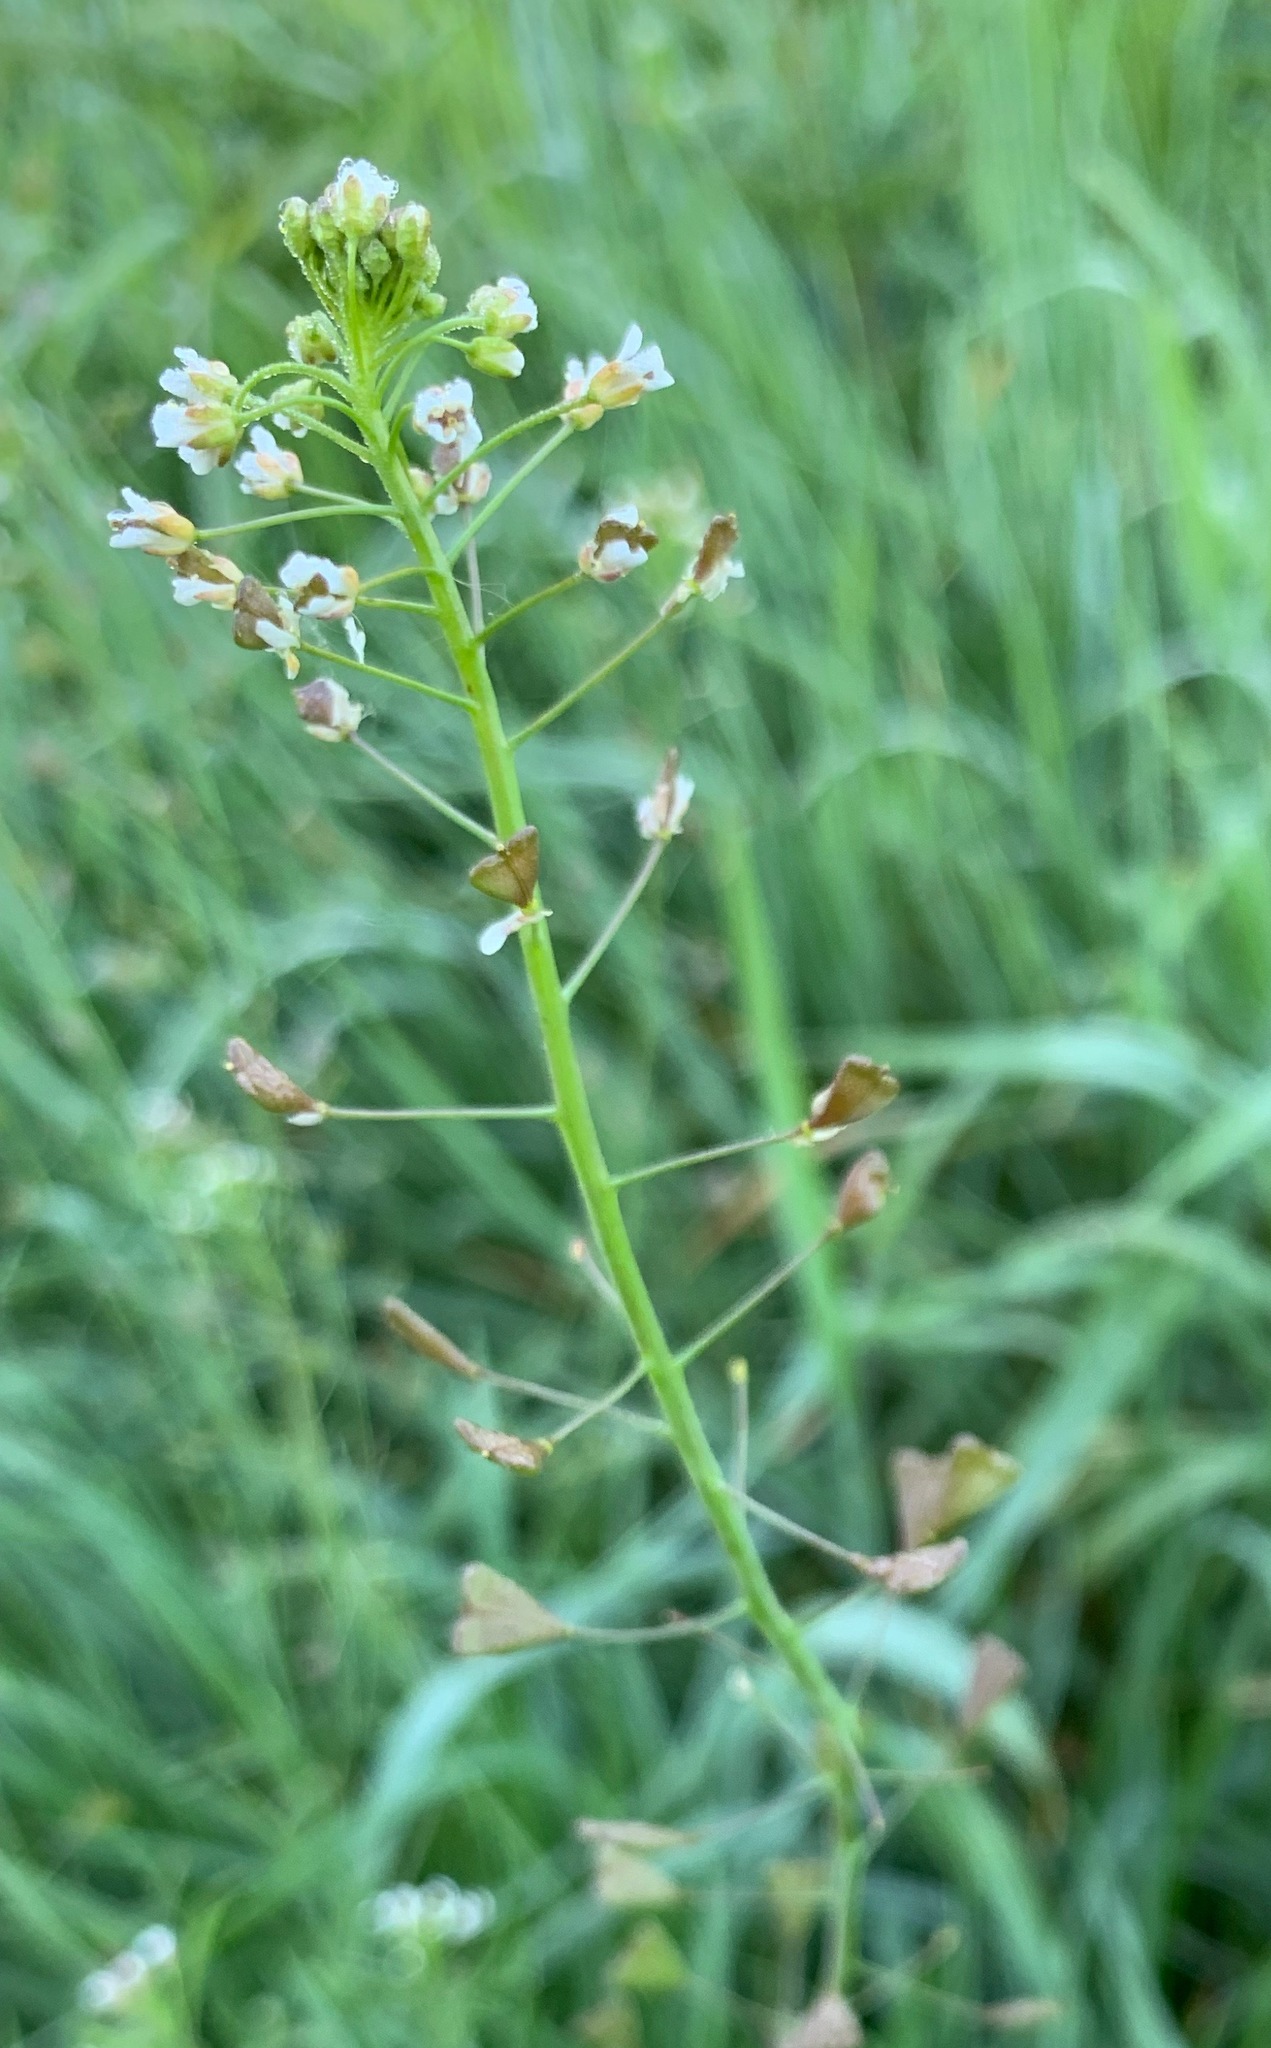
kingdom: Plantae
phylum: Tracheophyta
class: Magnoliopsida
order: Brassicales
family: Brassicaceae
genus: Capsella
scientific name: Capsella bursa-pastoris
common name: Shepherd's purse
